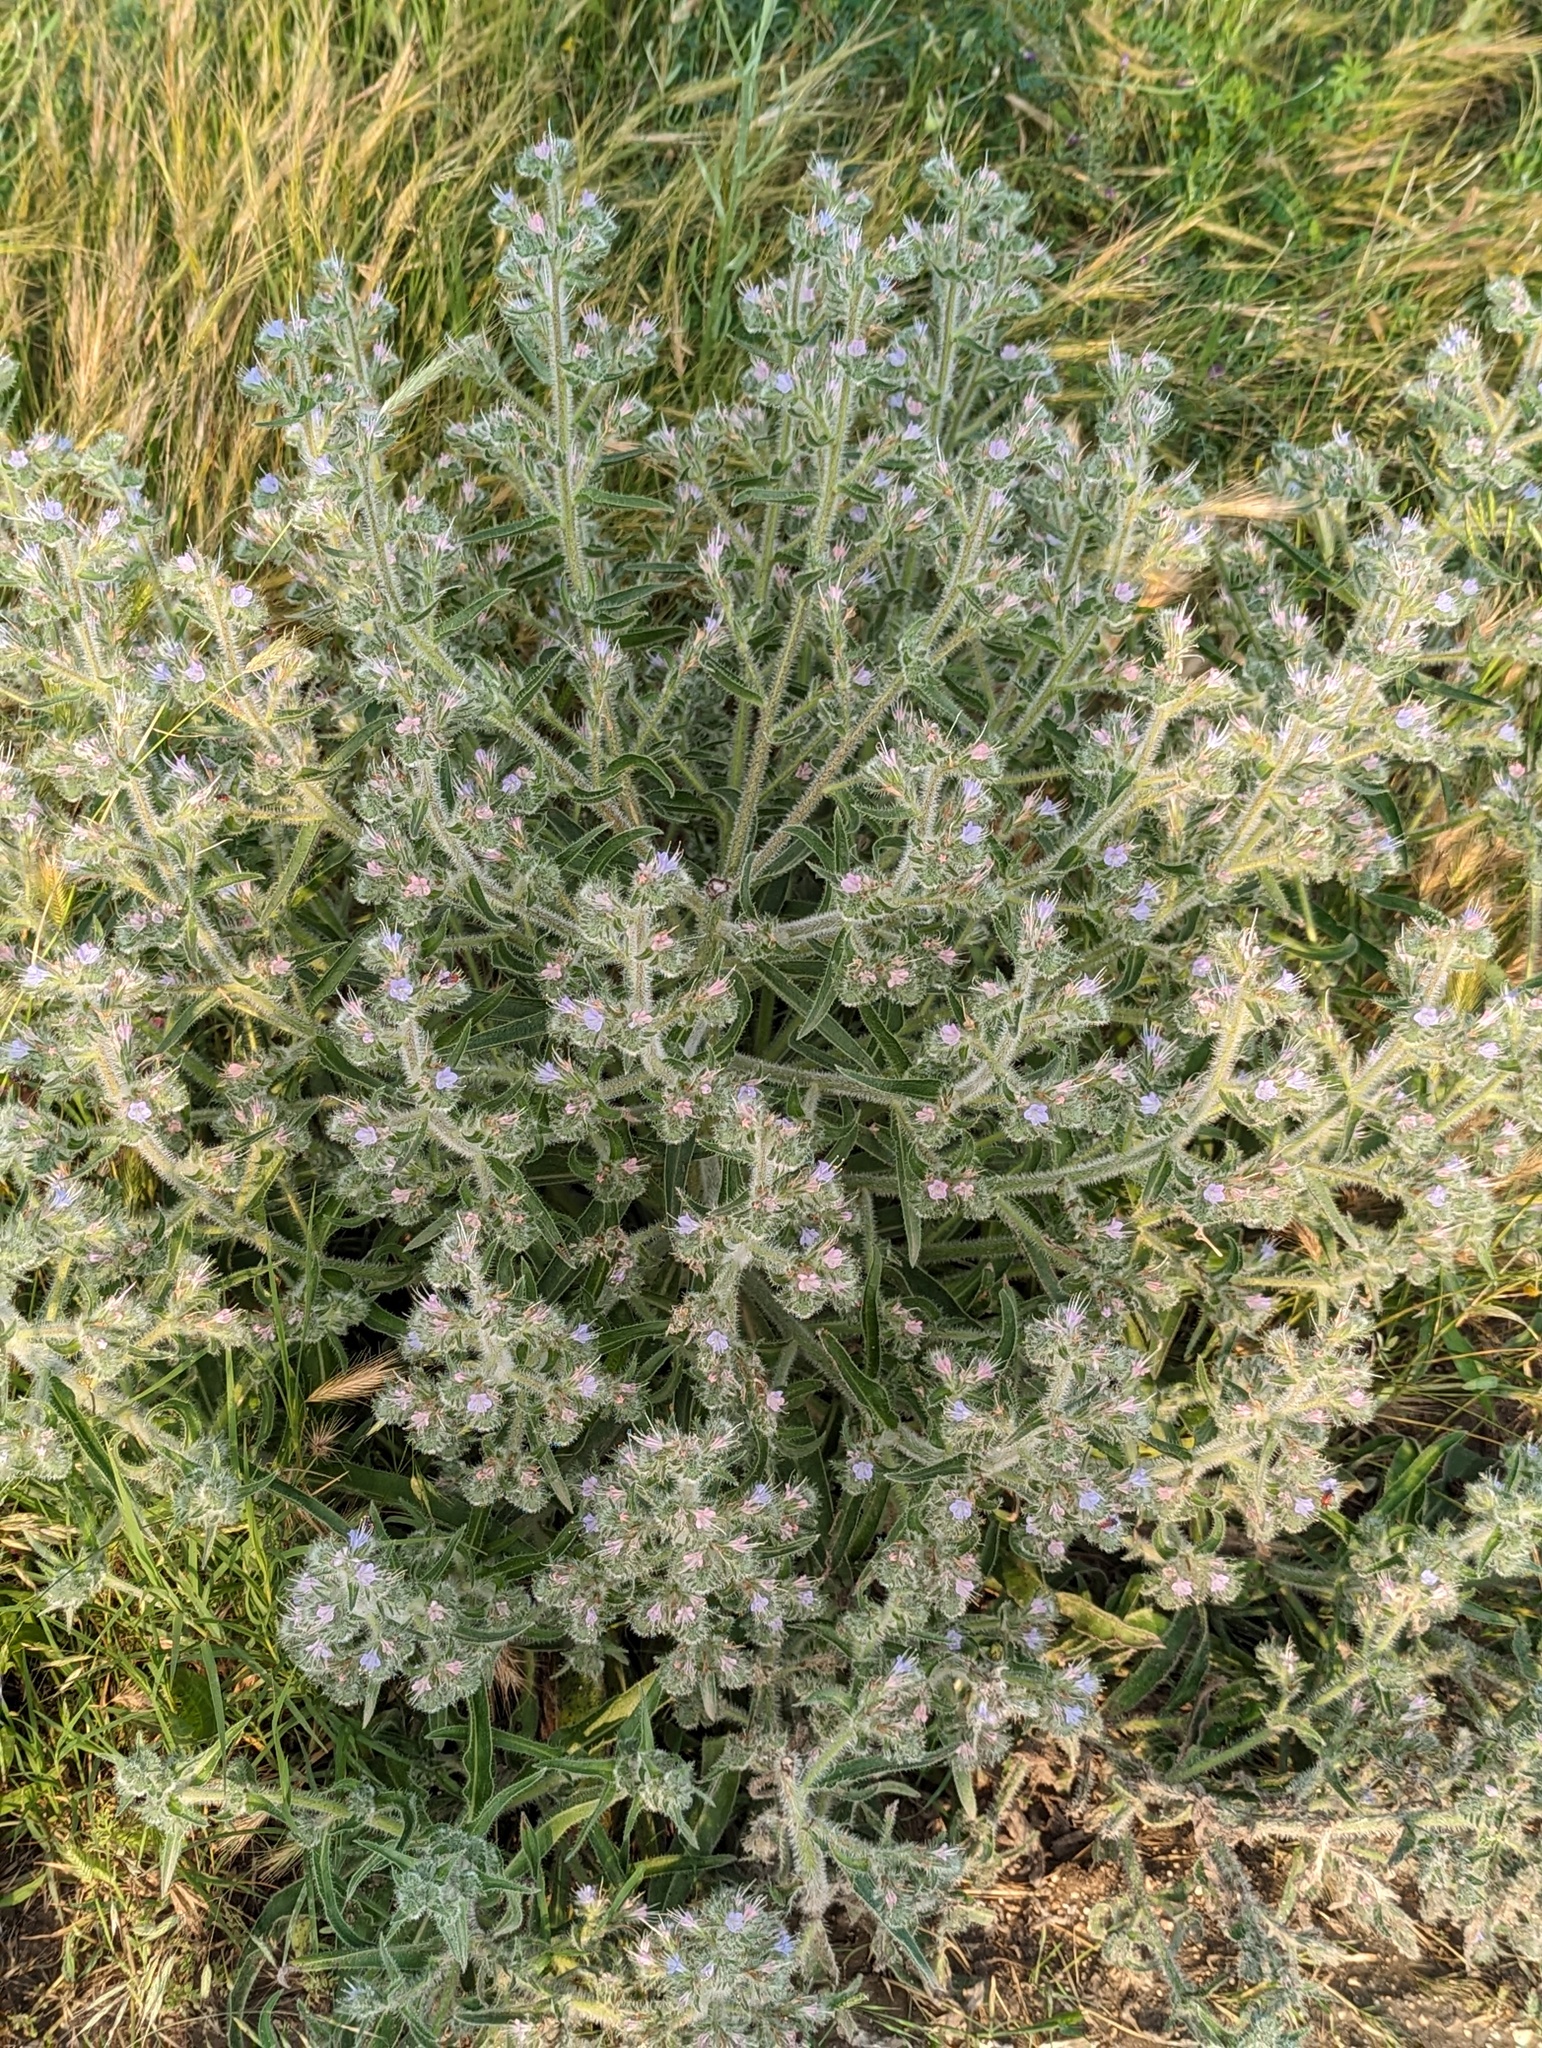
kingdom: Plantae
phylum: Tracheophyta
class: Magnoliopsida
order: Boraginales
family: Boraginaceae
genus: Echium
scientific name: Echium italicum
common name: Italian viper's bugloss
